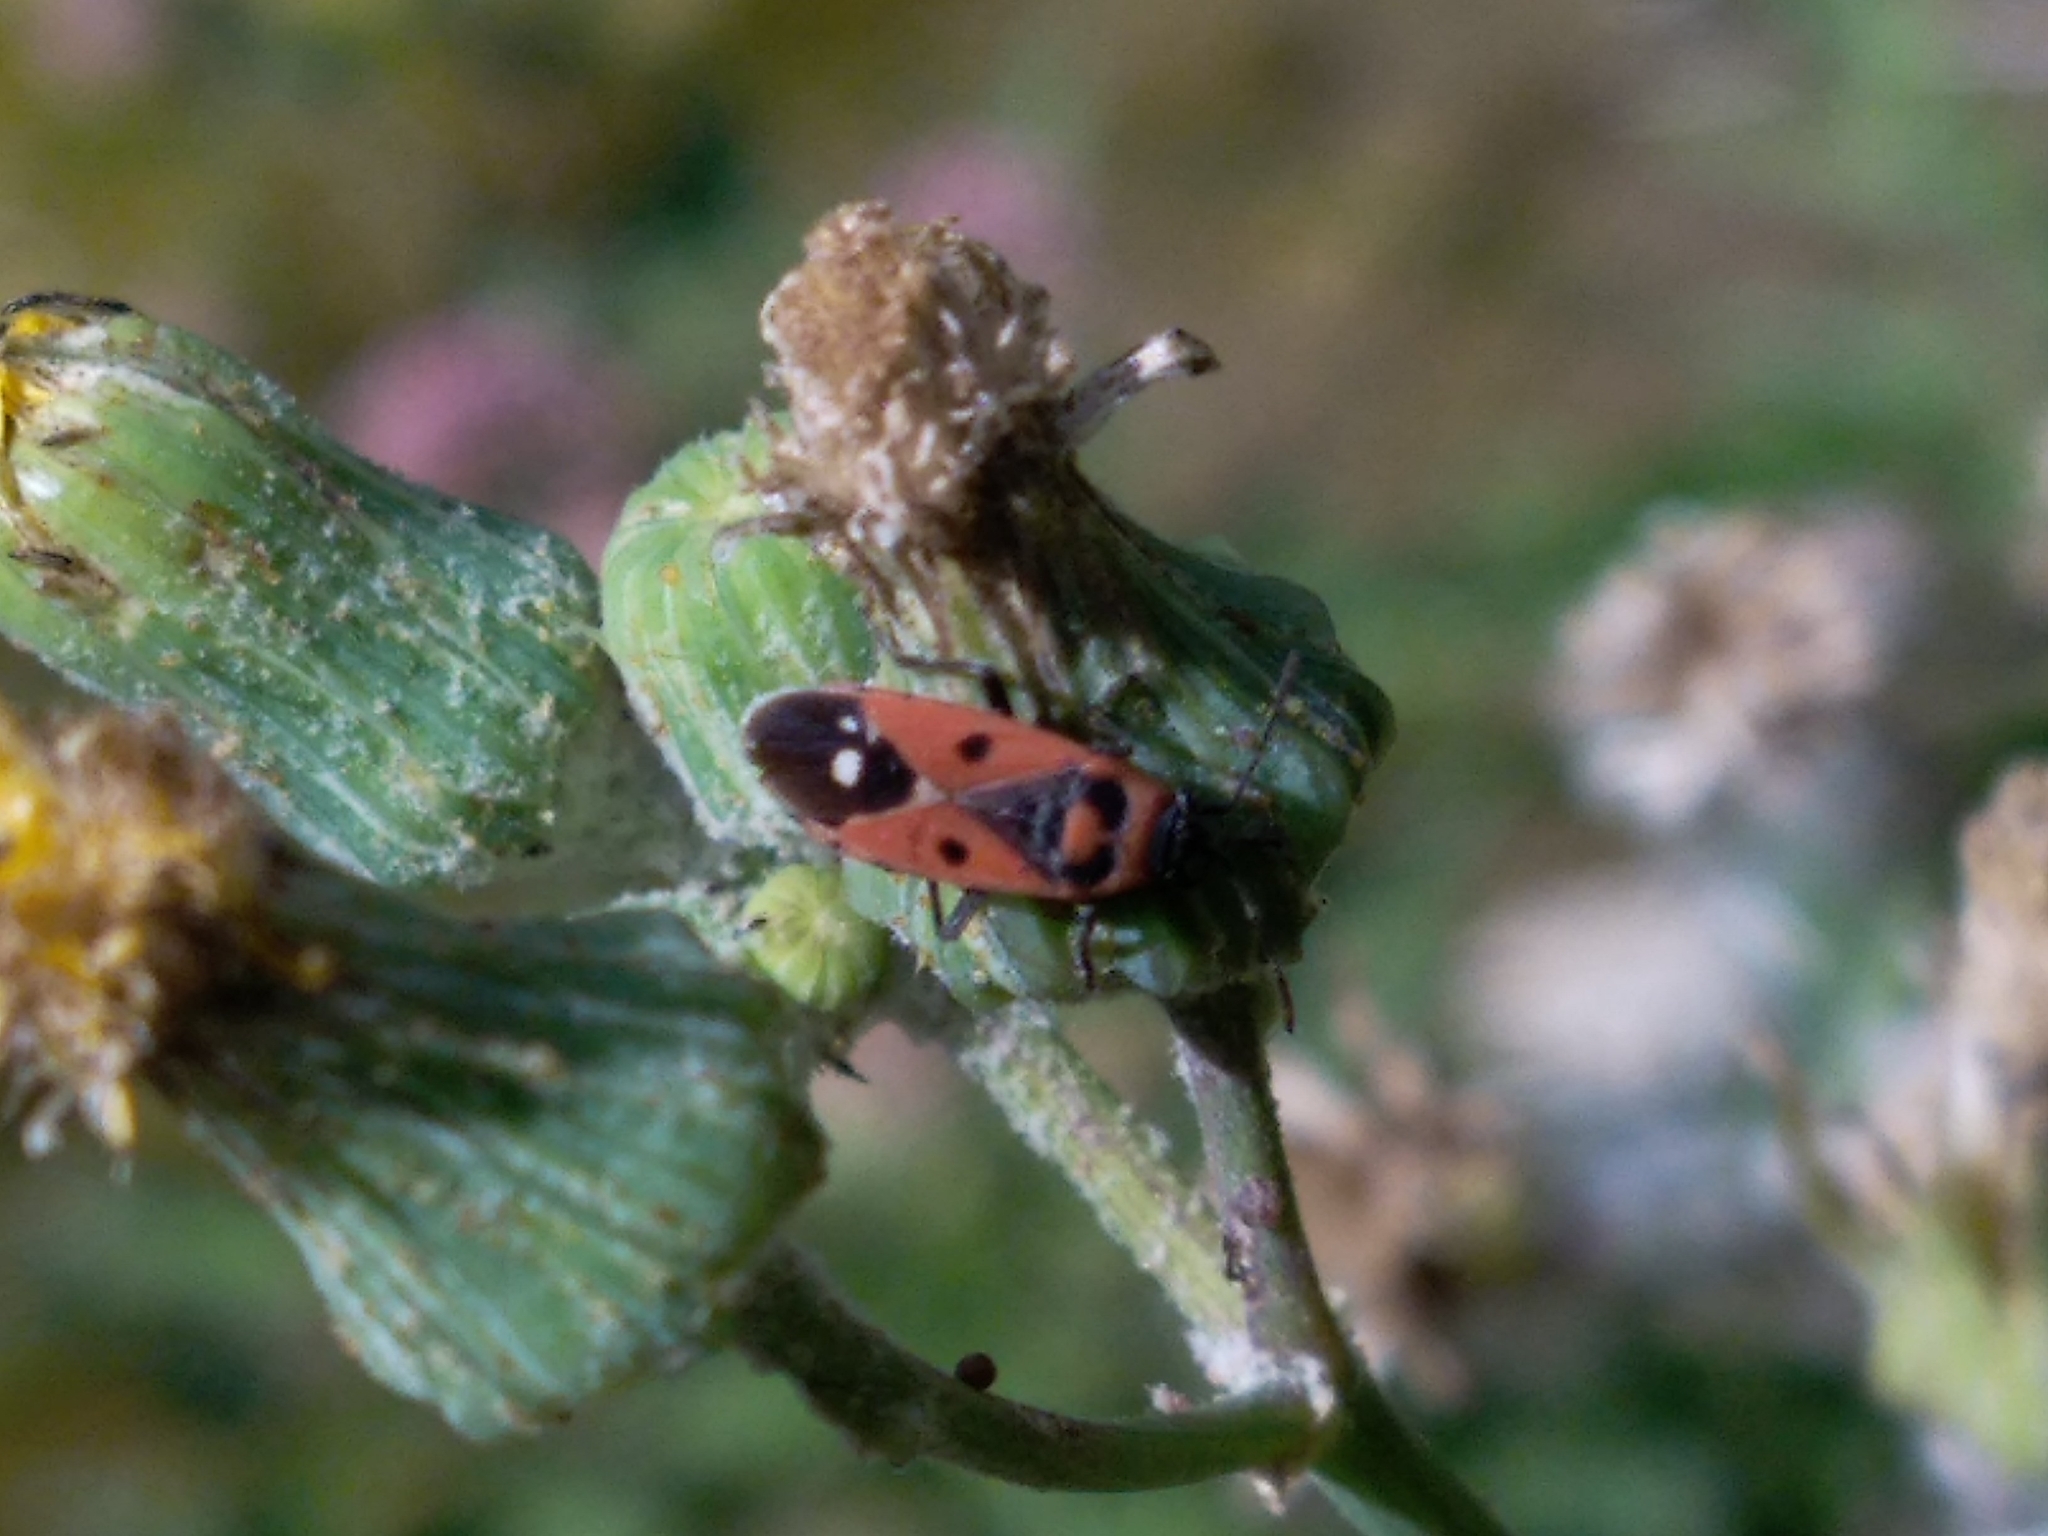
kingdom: Animalia
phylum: Arthropoda
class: Insecta
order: Hemiptera
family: Lygaeidae
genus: Melanocoryphus
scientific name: Melanocoryphus albomaculatus
